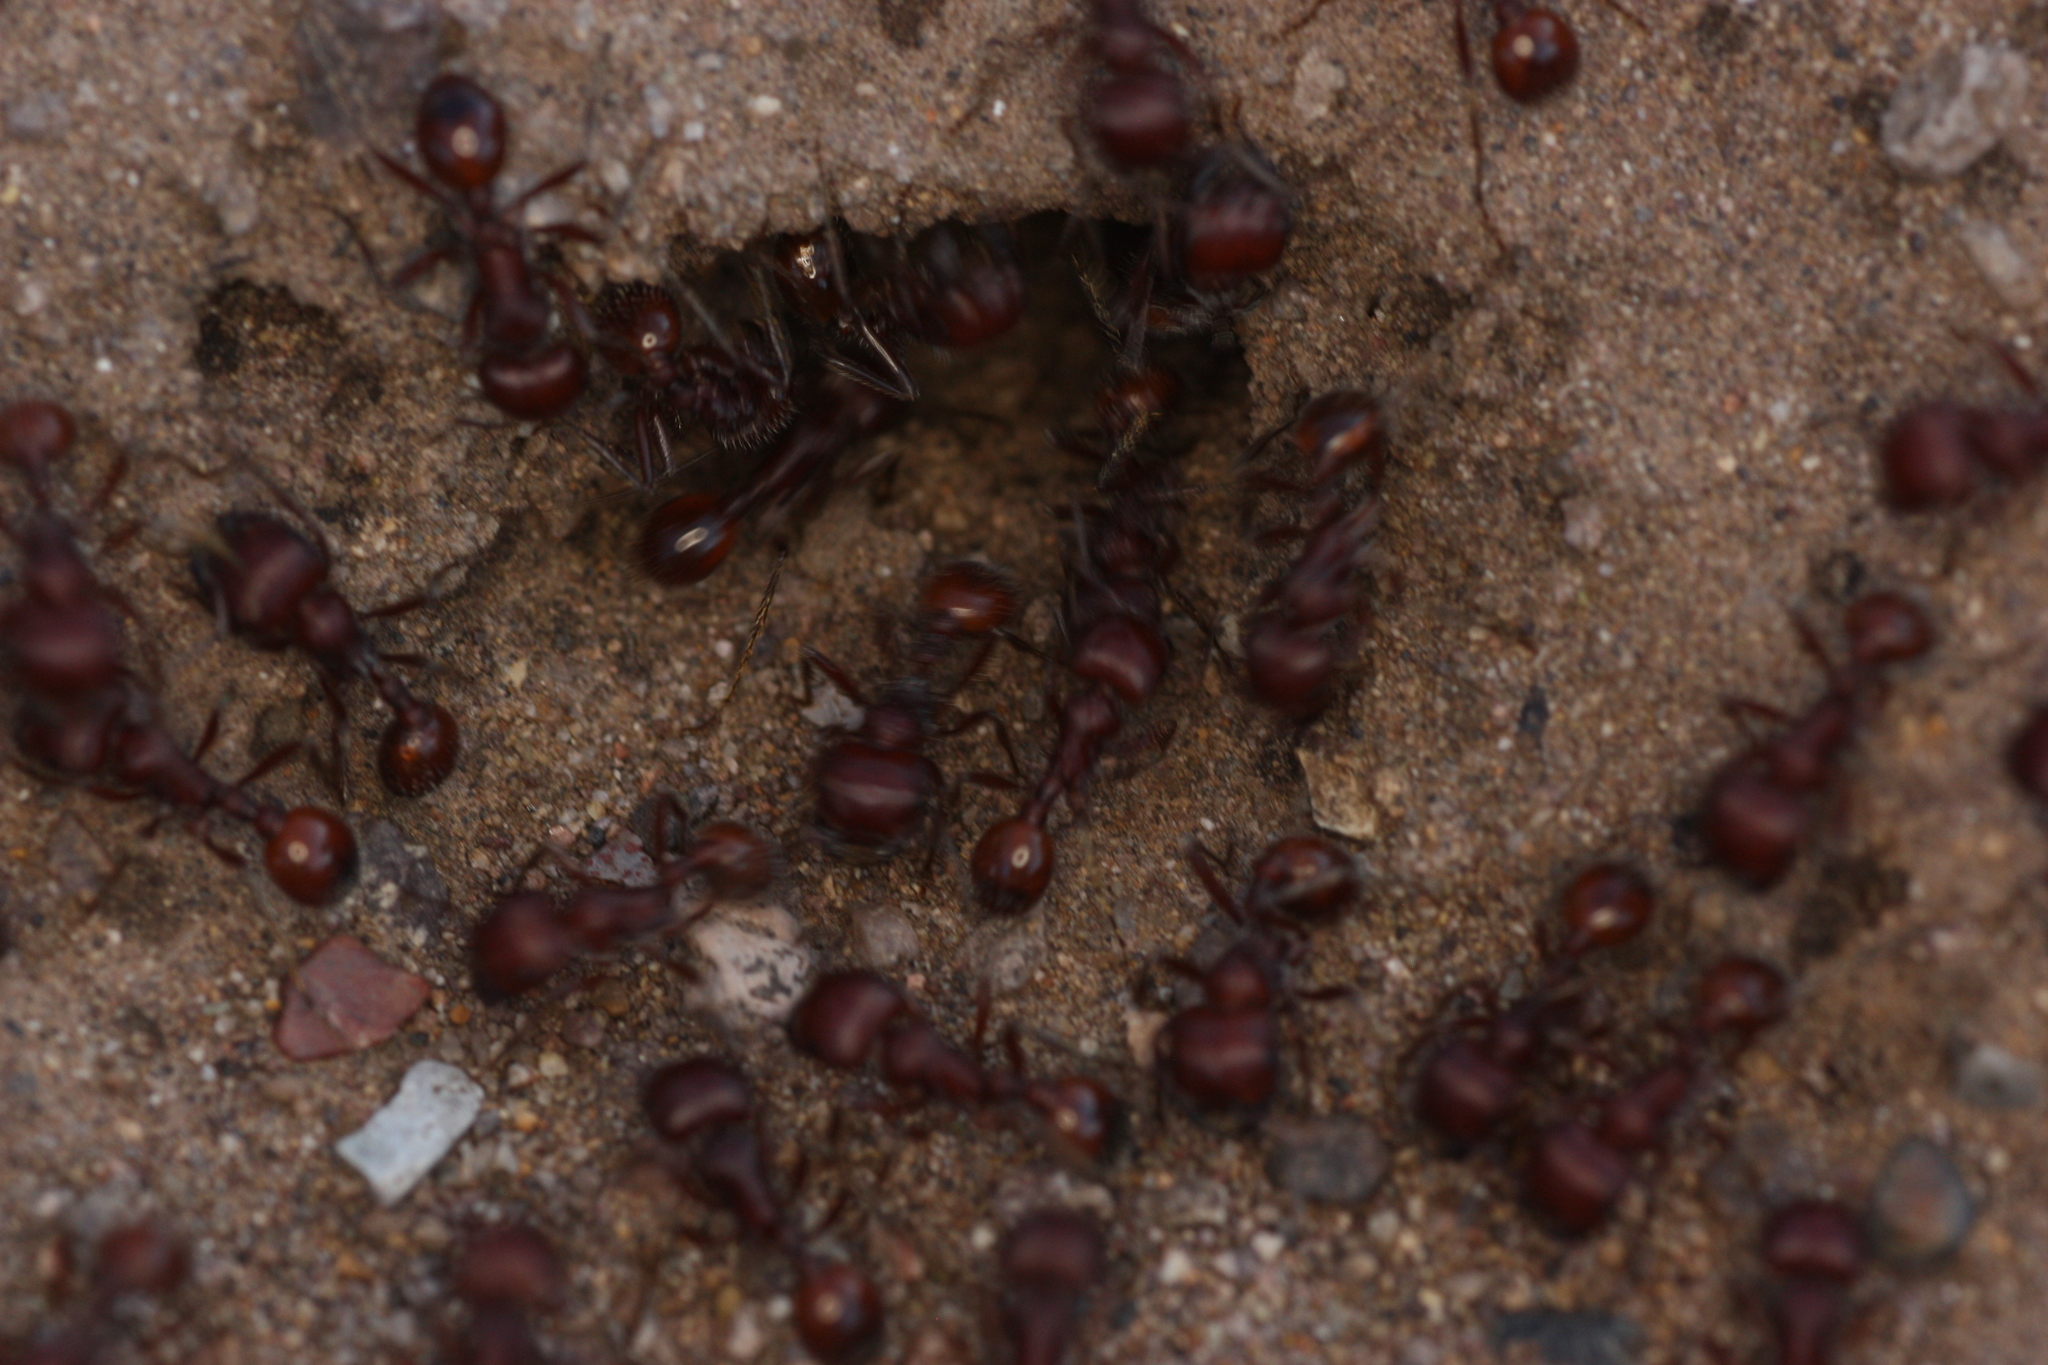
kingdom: Animalia
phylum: Arthropoda
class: Insecta
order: Hymenoptera
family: Formicidae
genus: Pogonomyrmex
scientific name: Pogonomyrmex barbatus
